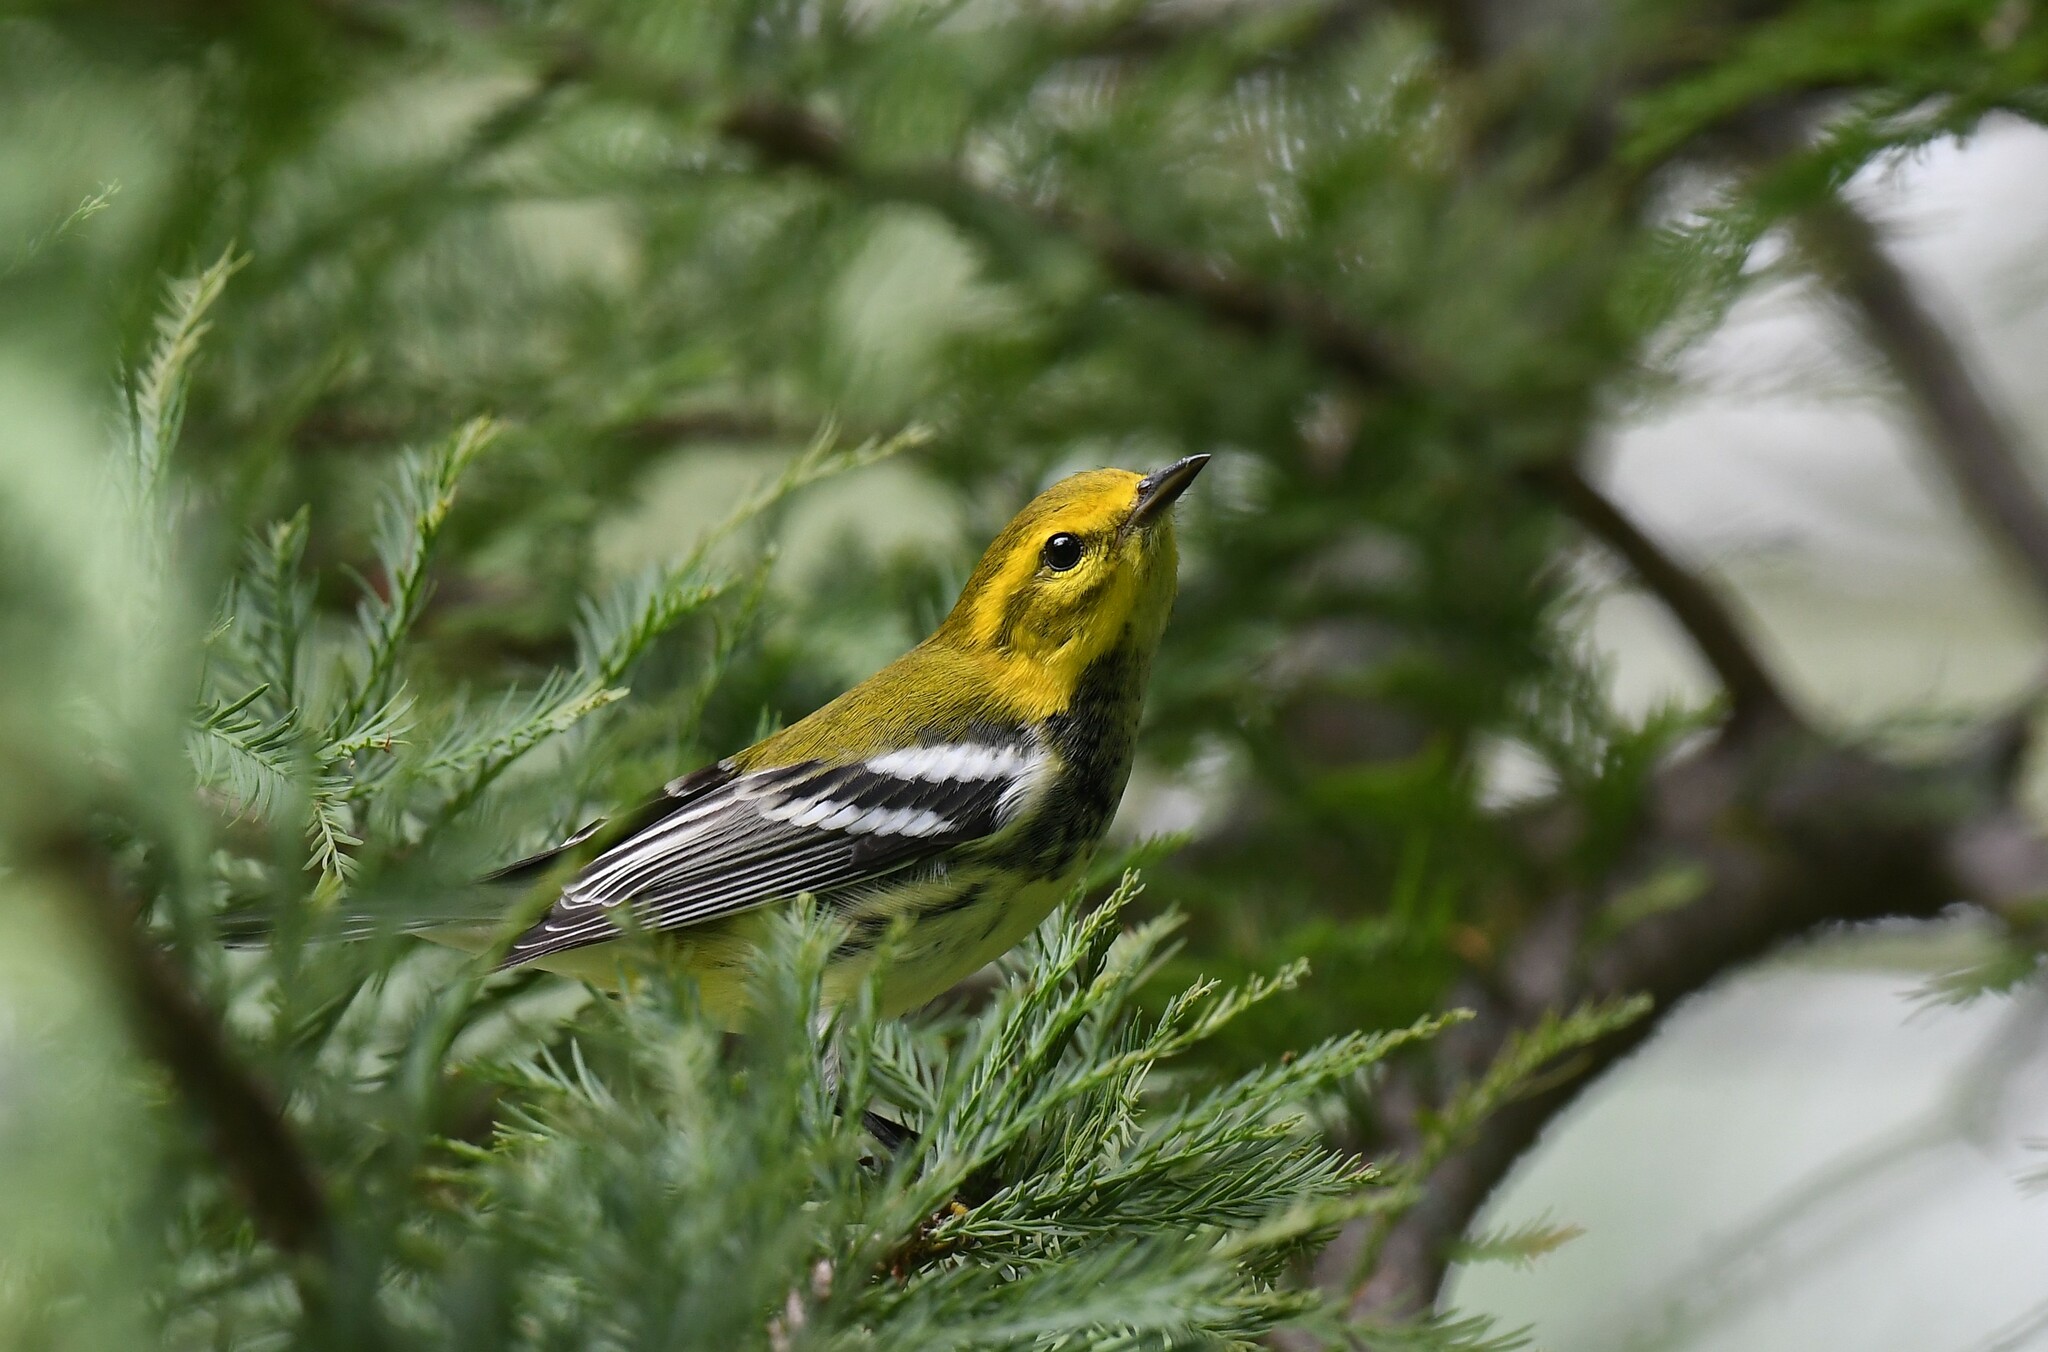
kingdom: Animalia
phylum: Chordata
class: Aves
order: Passeriformes
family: Parulidae
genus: Setophaga
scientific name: Setophaga virens
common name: Black-throated green warbler
